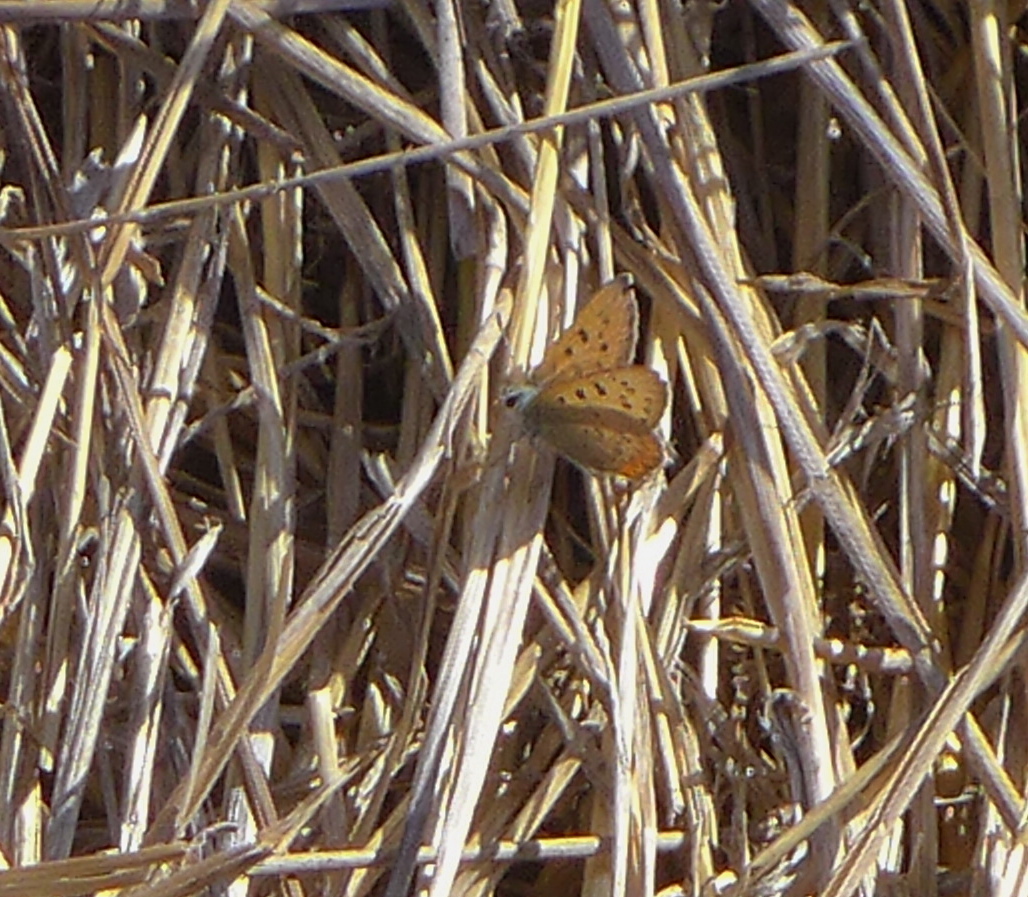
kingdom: Animalia
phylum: Arthropoda
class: Insecta
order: Lepidoptera
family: Lycaenidae
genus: Tharsalea
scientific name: Tharsalea helloides
